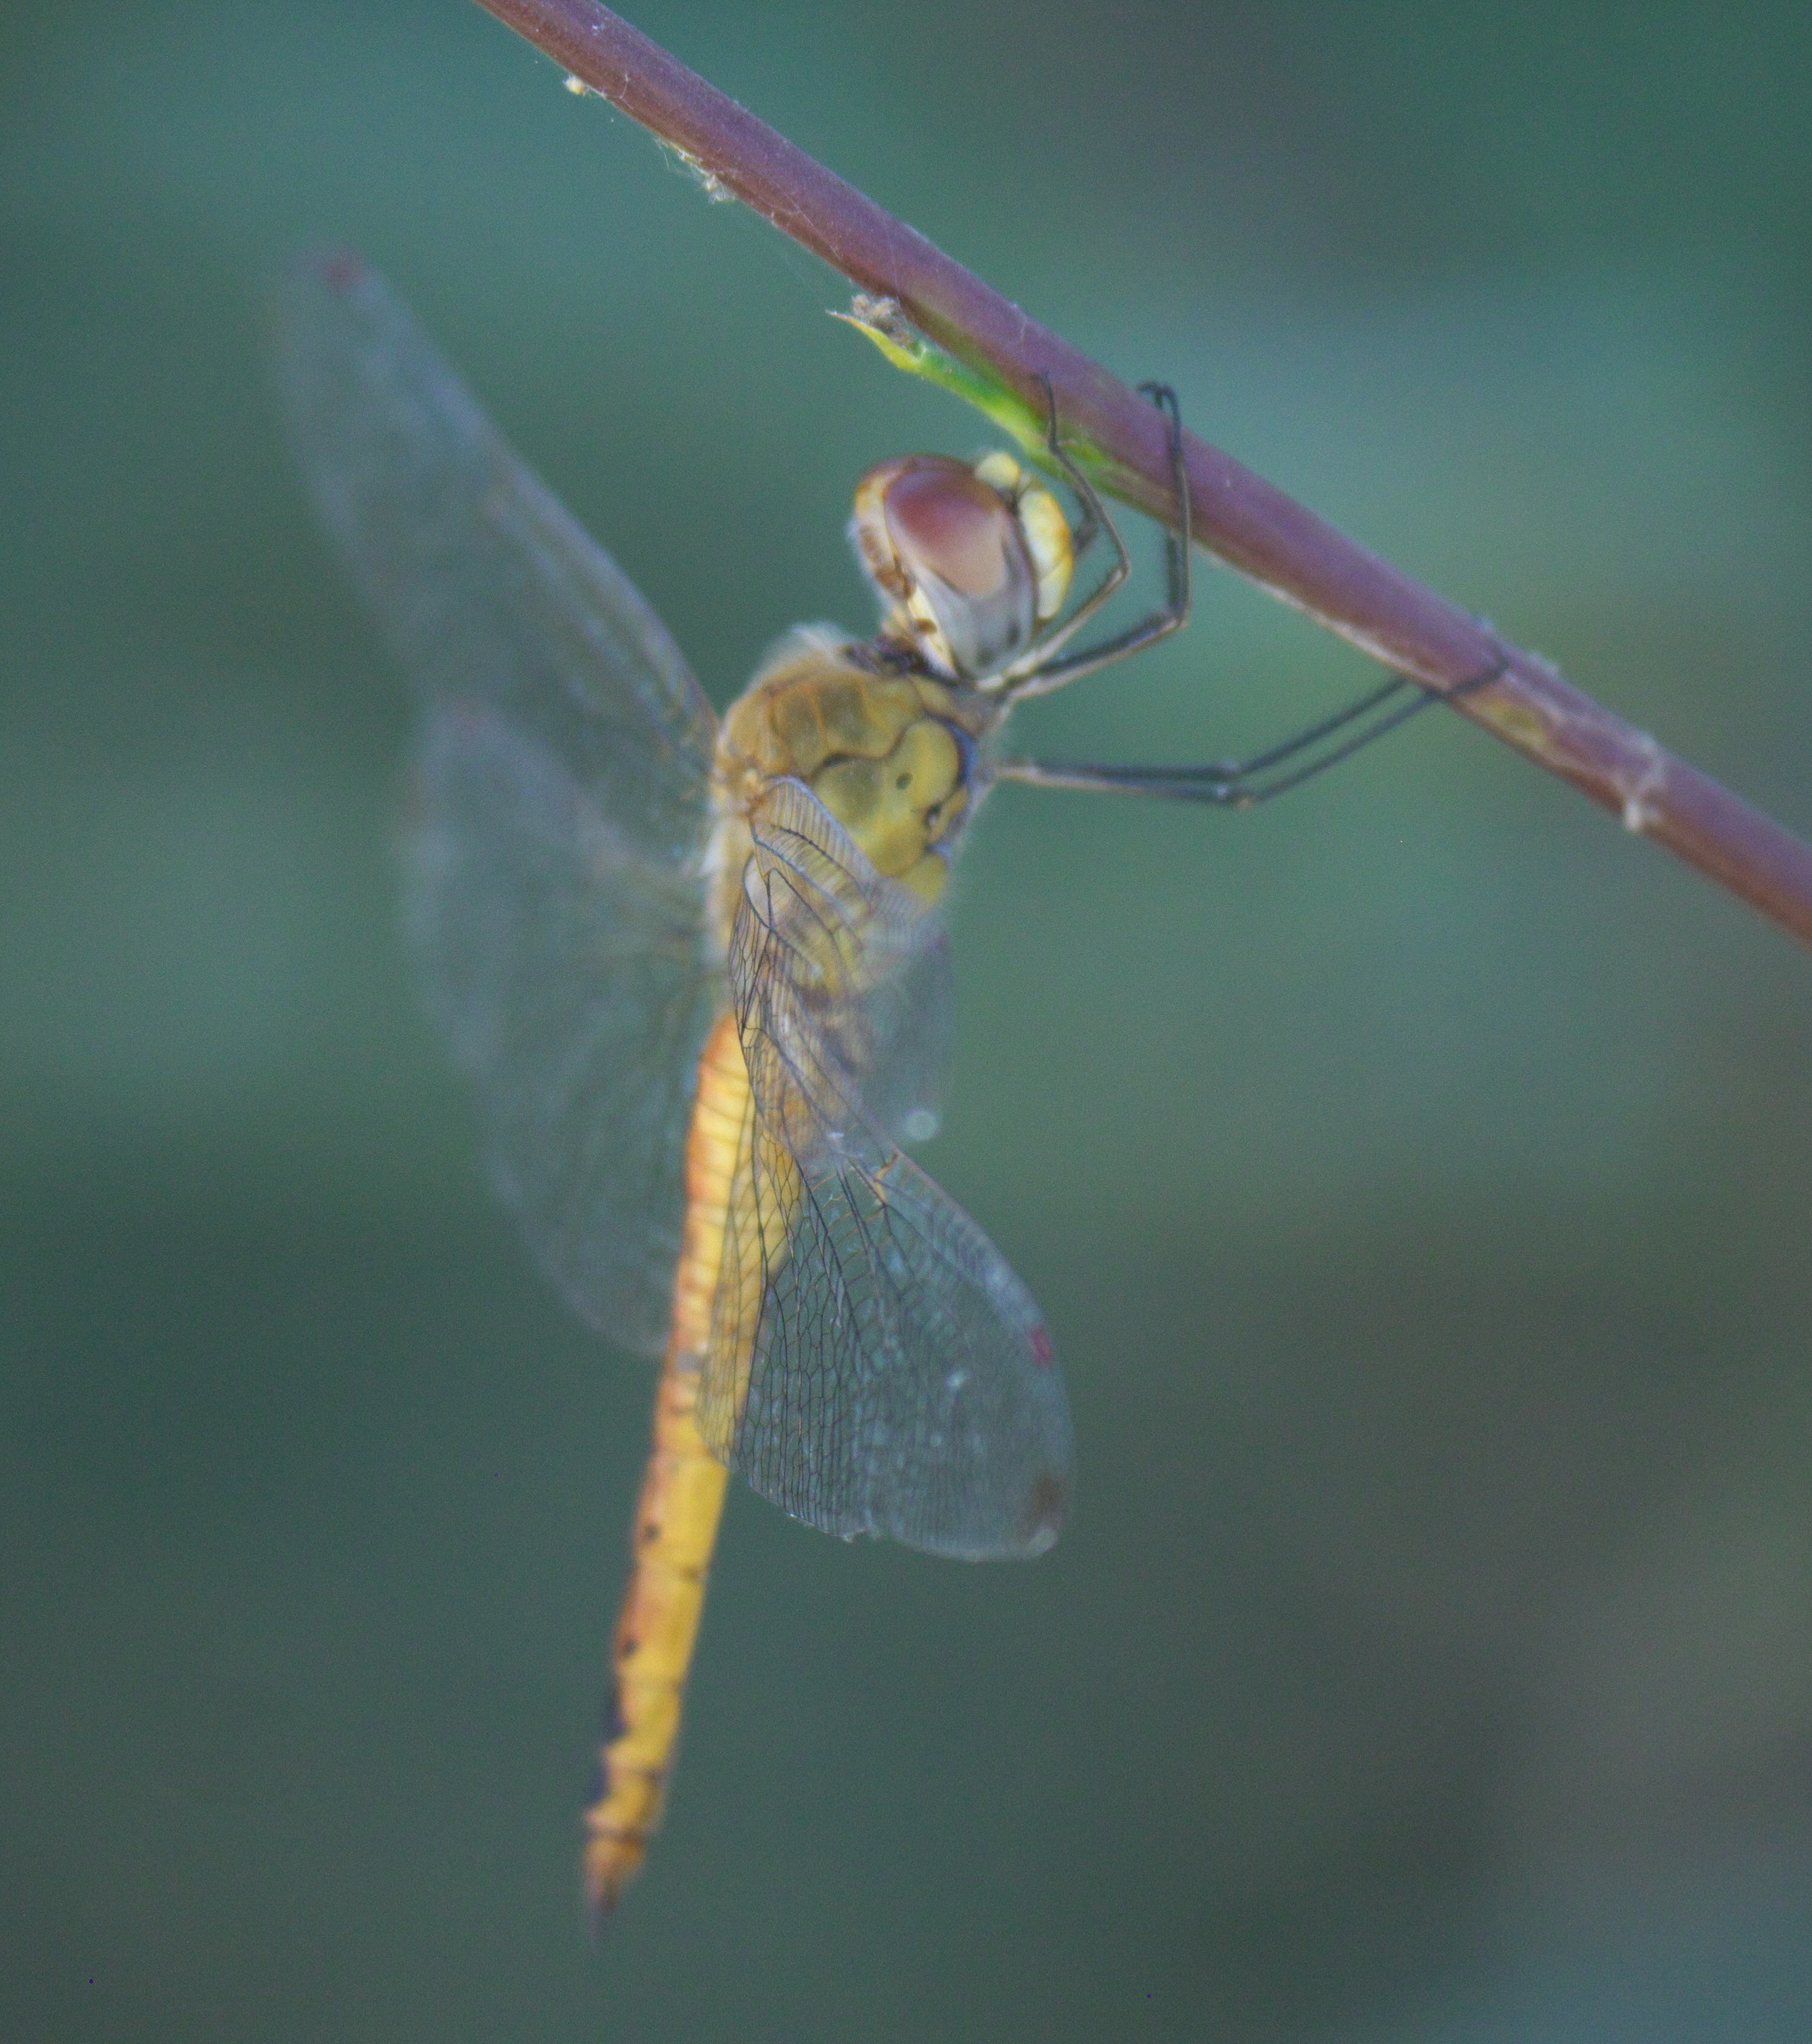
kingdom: Animalia
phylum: Arthropoda
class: Insecta
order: Odonata
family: Libellulidae
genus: Pantala
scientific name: Pantala flavescens
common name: Wandering glider
